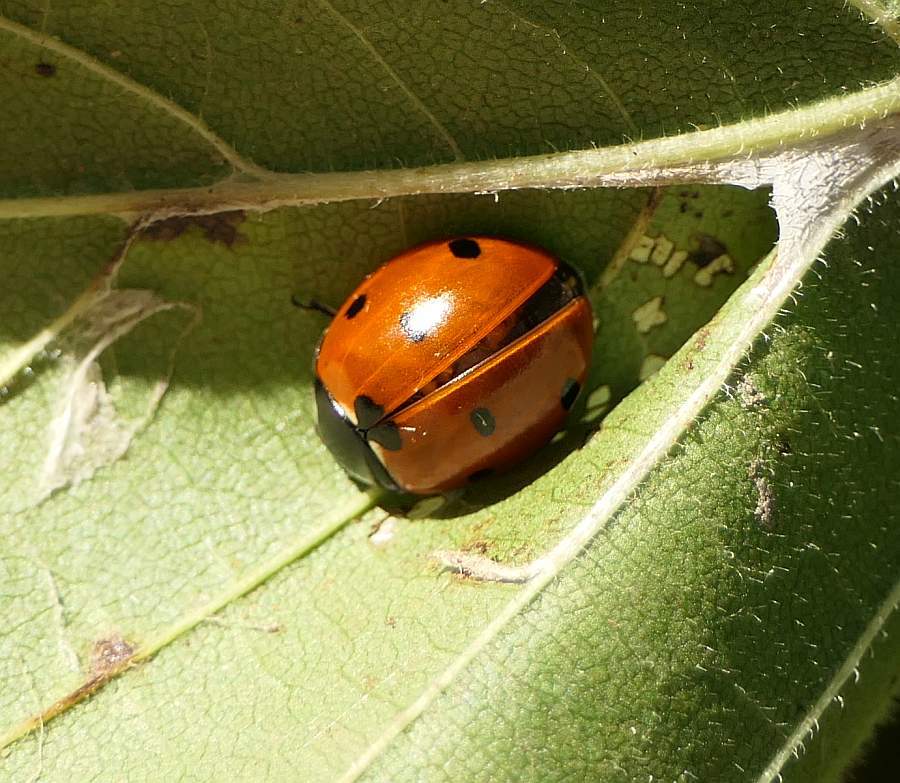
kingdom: Animalia
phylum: Arthropoda
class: Insecta
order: Coleoptera
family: Coccinellidae
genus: Coccinella
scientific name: Coccinella septempunctata
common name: Sevenspotted lady beetle
